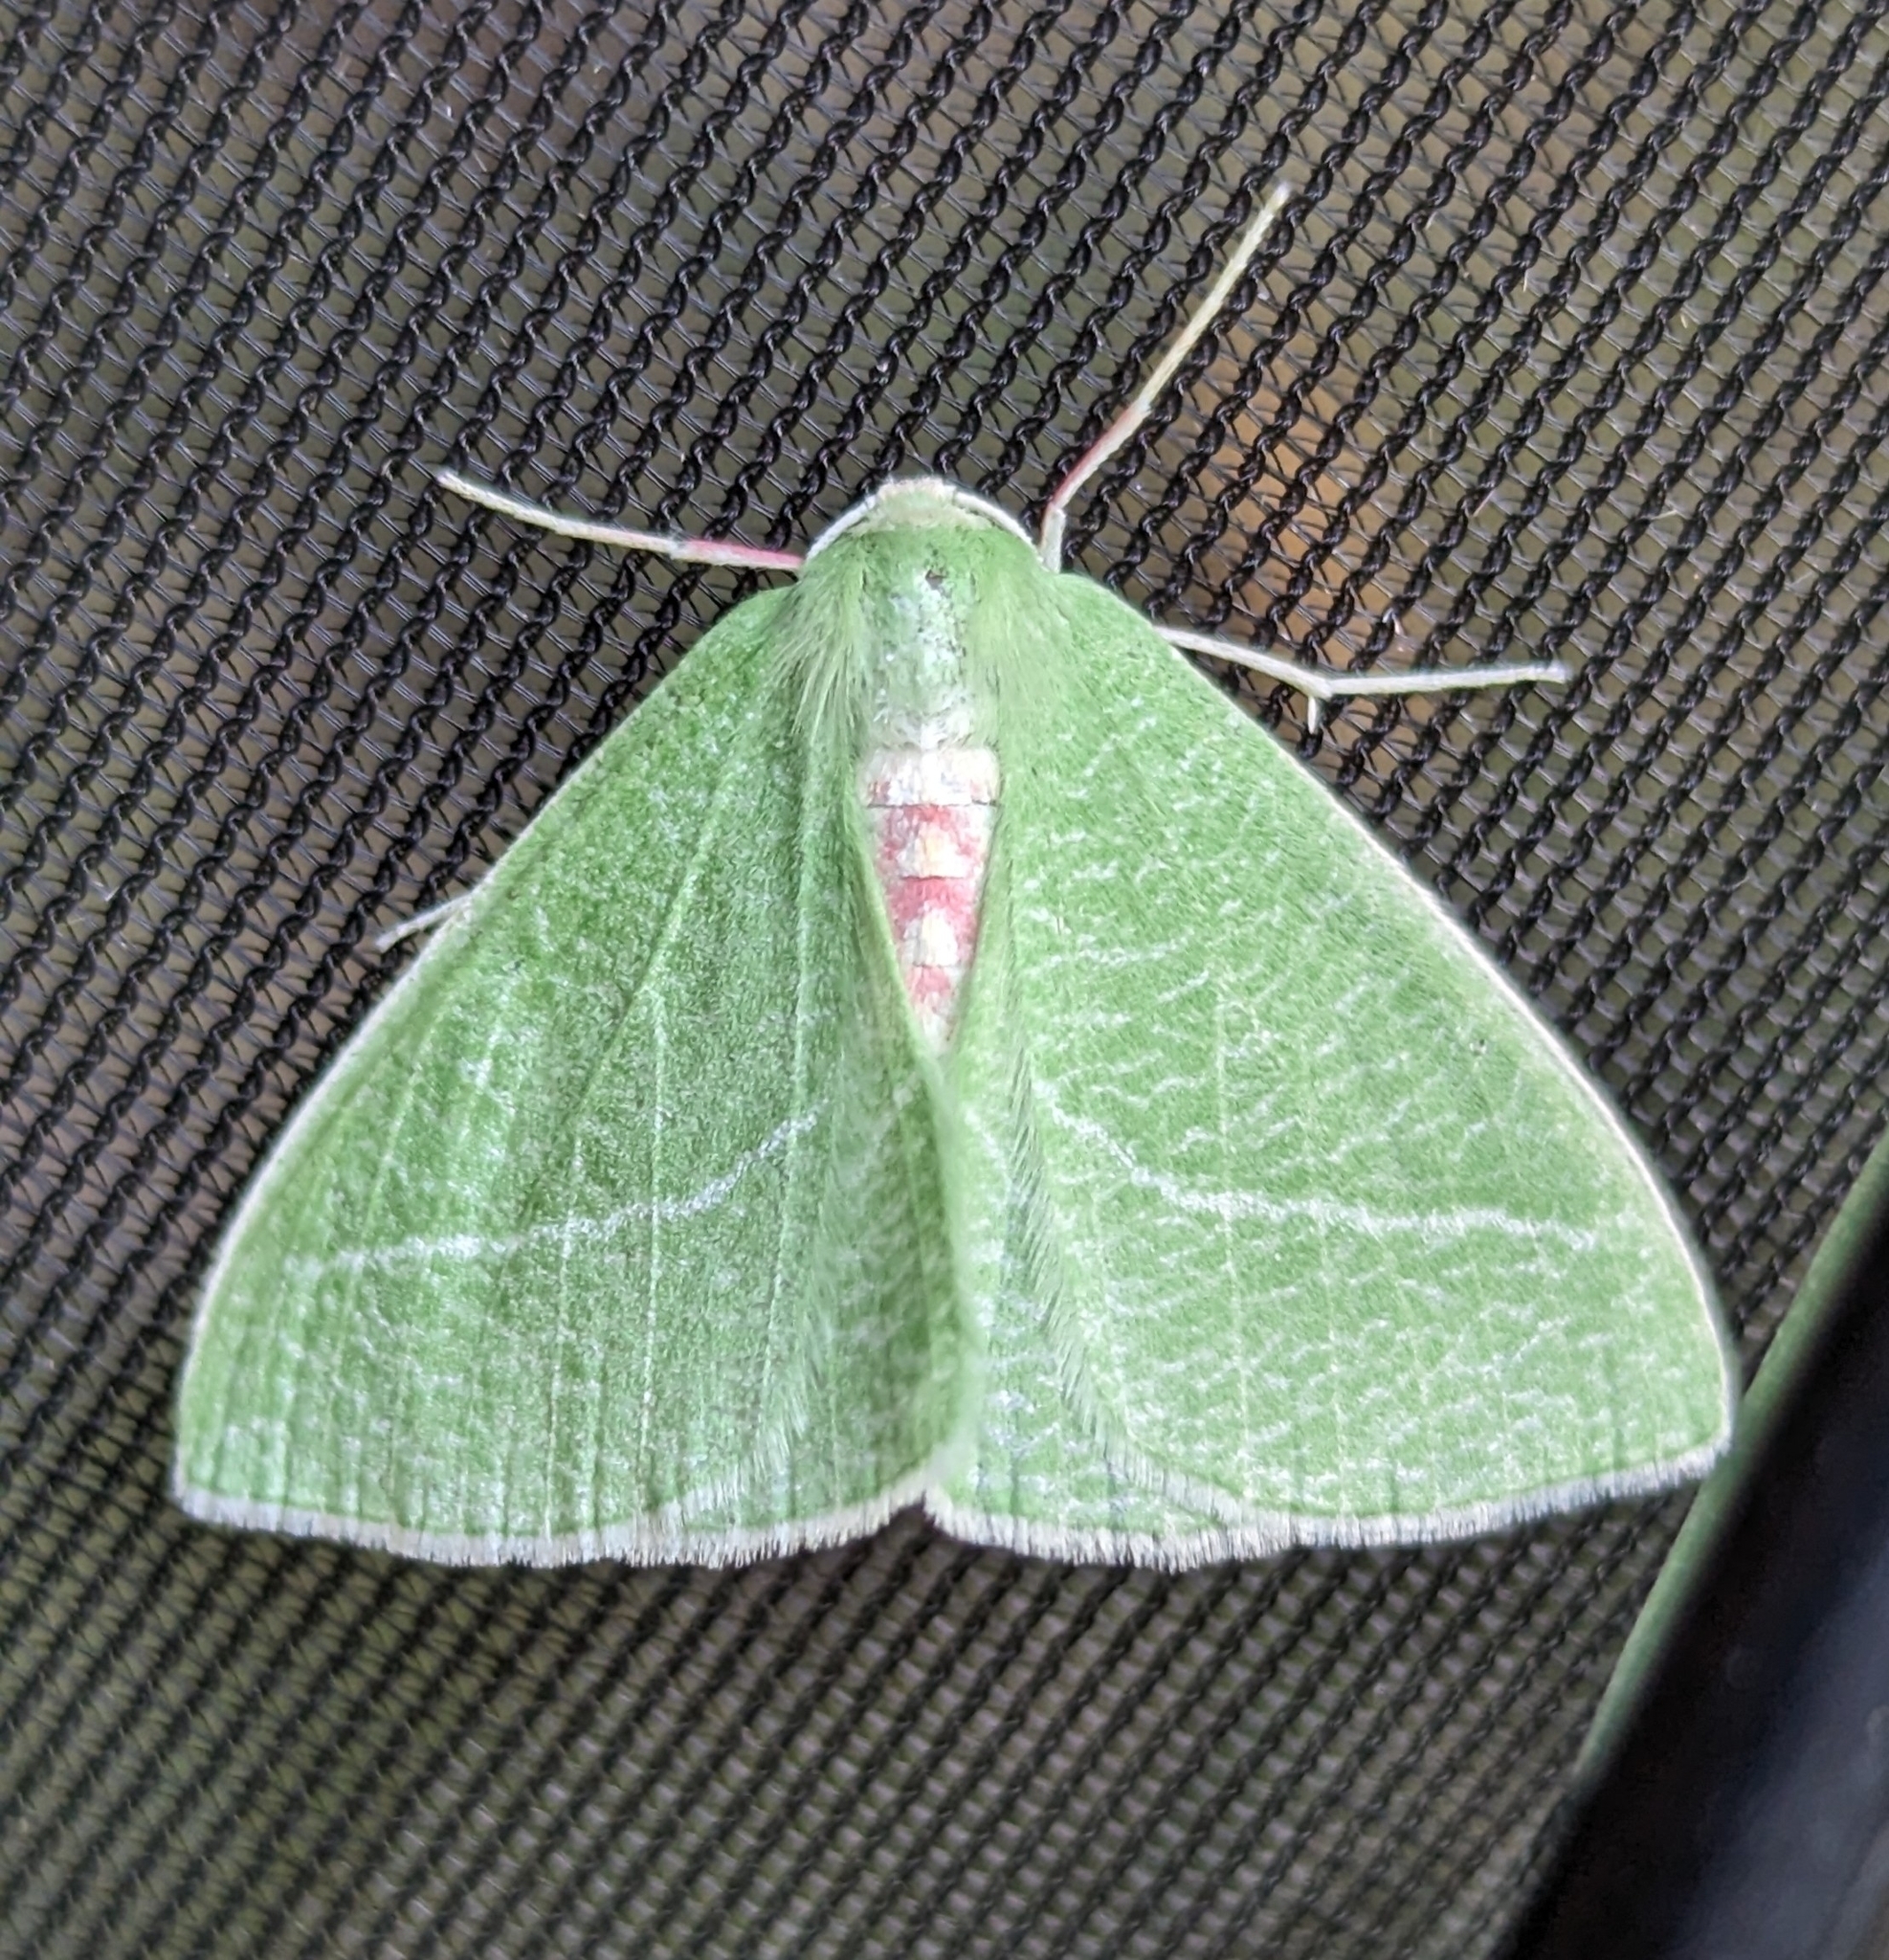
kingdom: Animalia
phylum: Arthropoda
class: Insecta
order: Lepidoptera
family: Geometridae
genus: Chlorosea
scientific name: Chlorosea banksaria
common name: Bank's emerald moth
